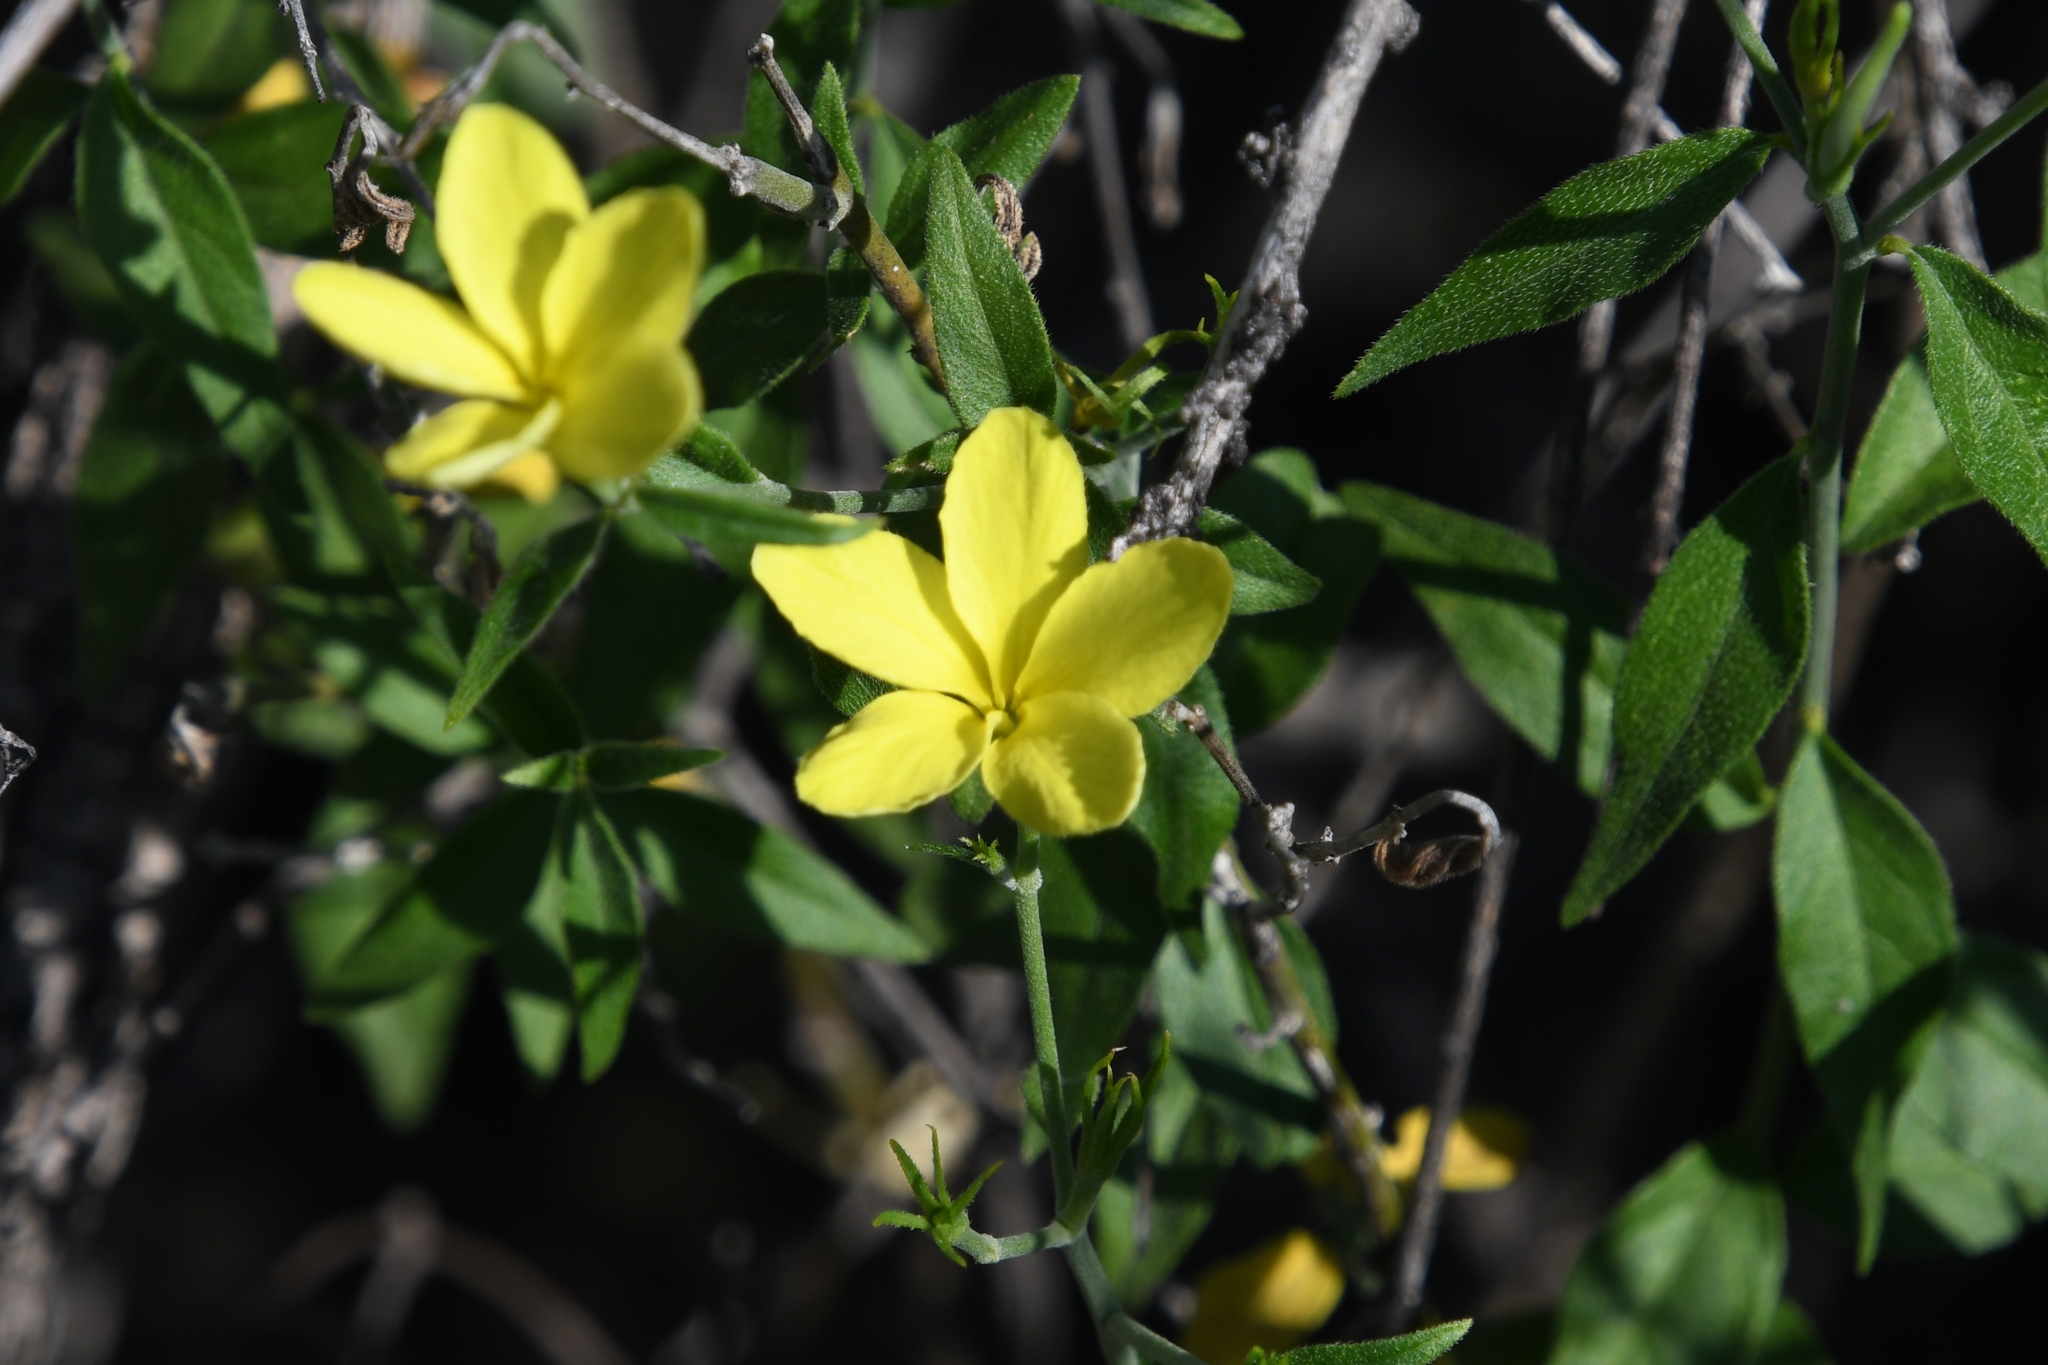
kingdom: Plantae
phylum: Tracheophyta
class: Magnoliopsida
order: Gentianales
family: Apocynaceae
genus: Haplophyton
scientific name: Haplophyton crooksii
